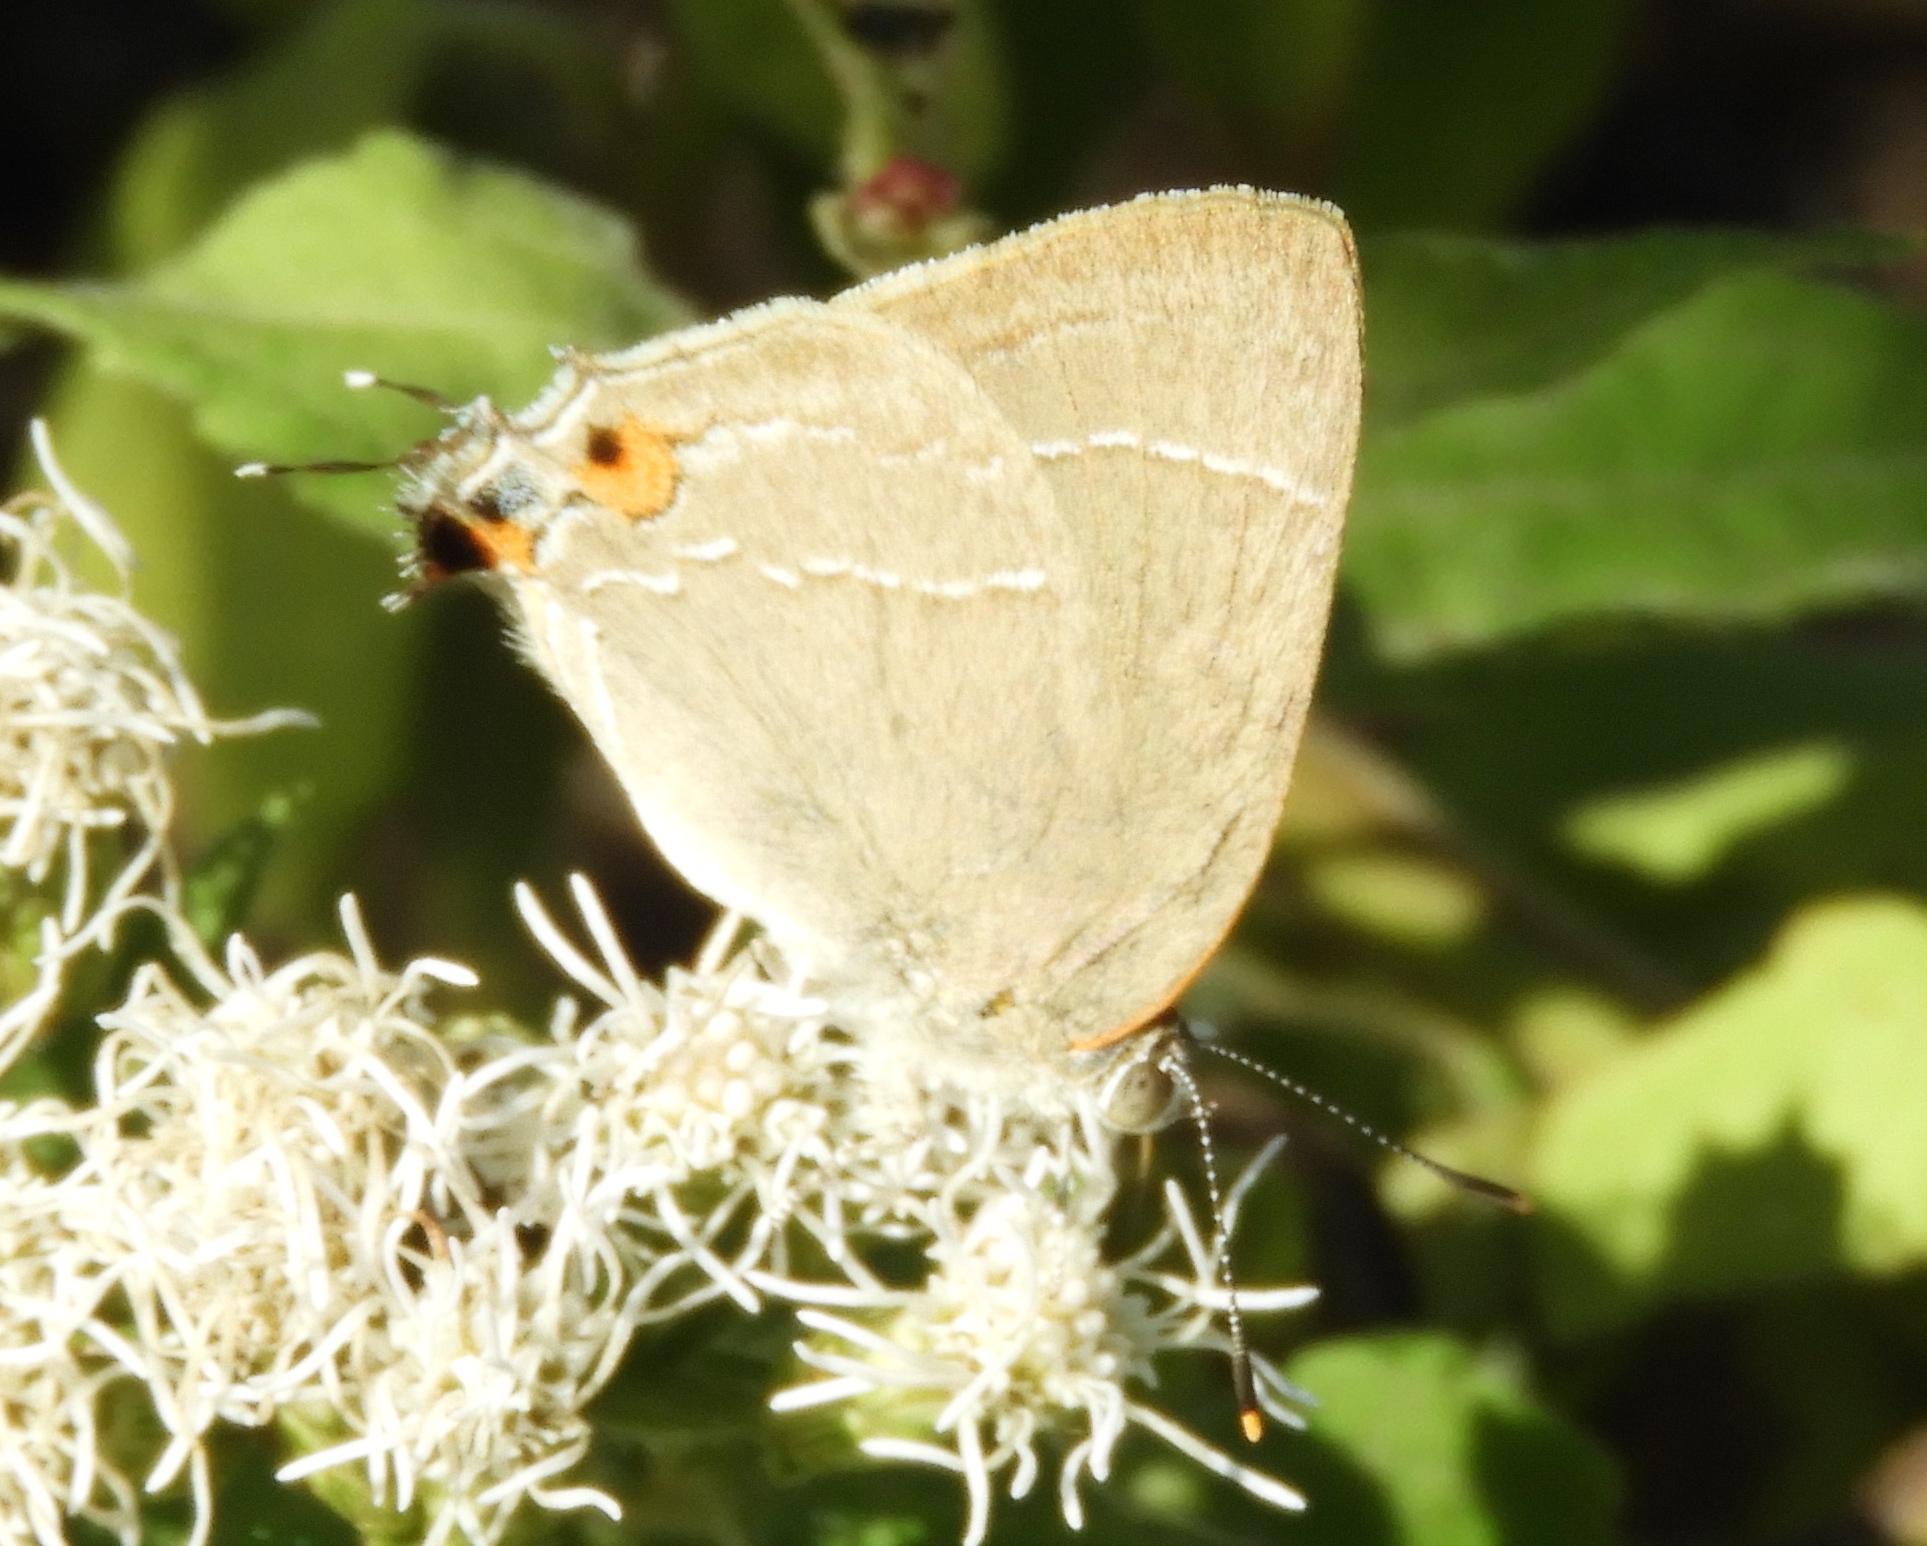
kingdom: Animalia
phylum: Arthropoda
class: Insecta
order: Lepidoptera
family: Lycaenidae
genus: Rekoa
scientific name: Rekoa
